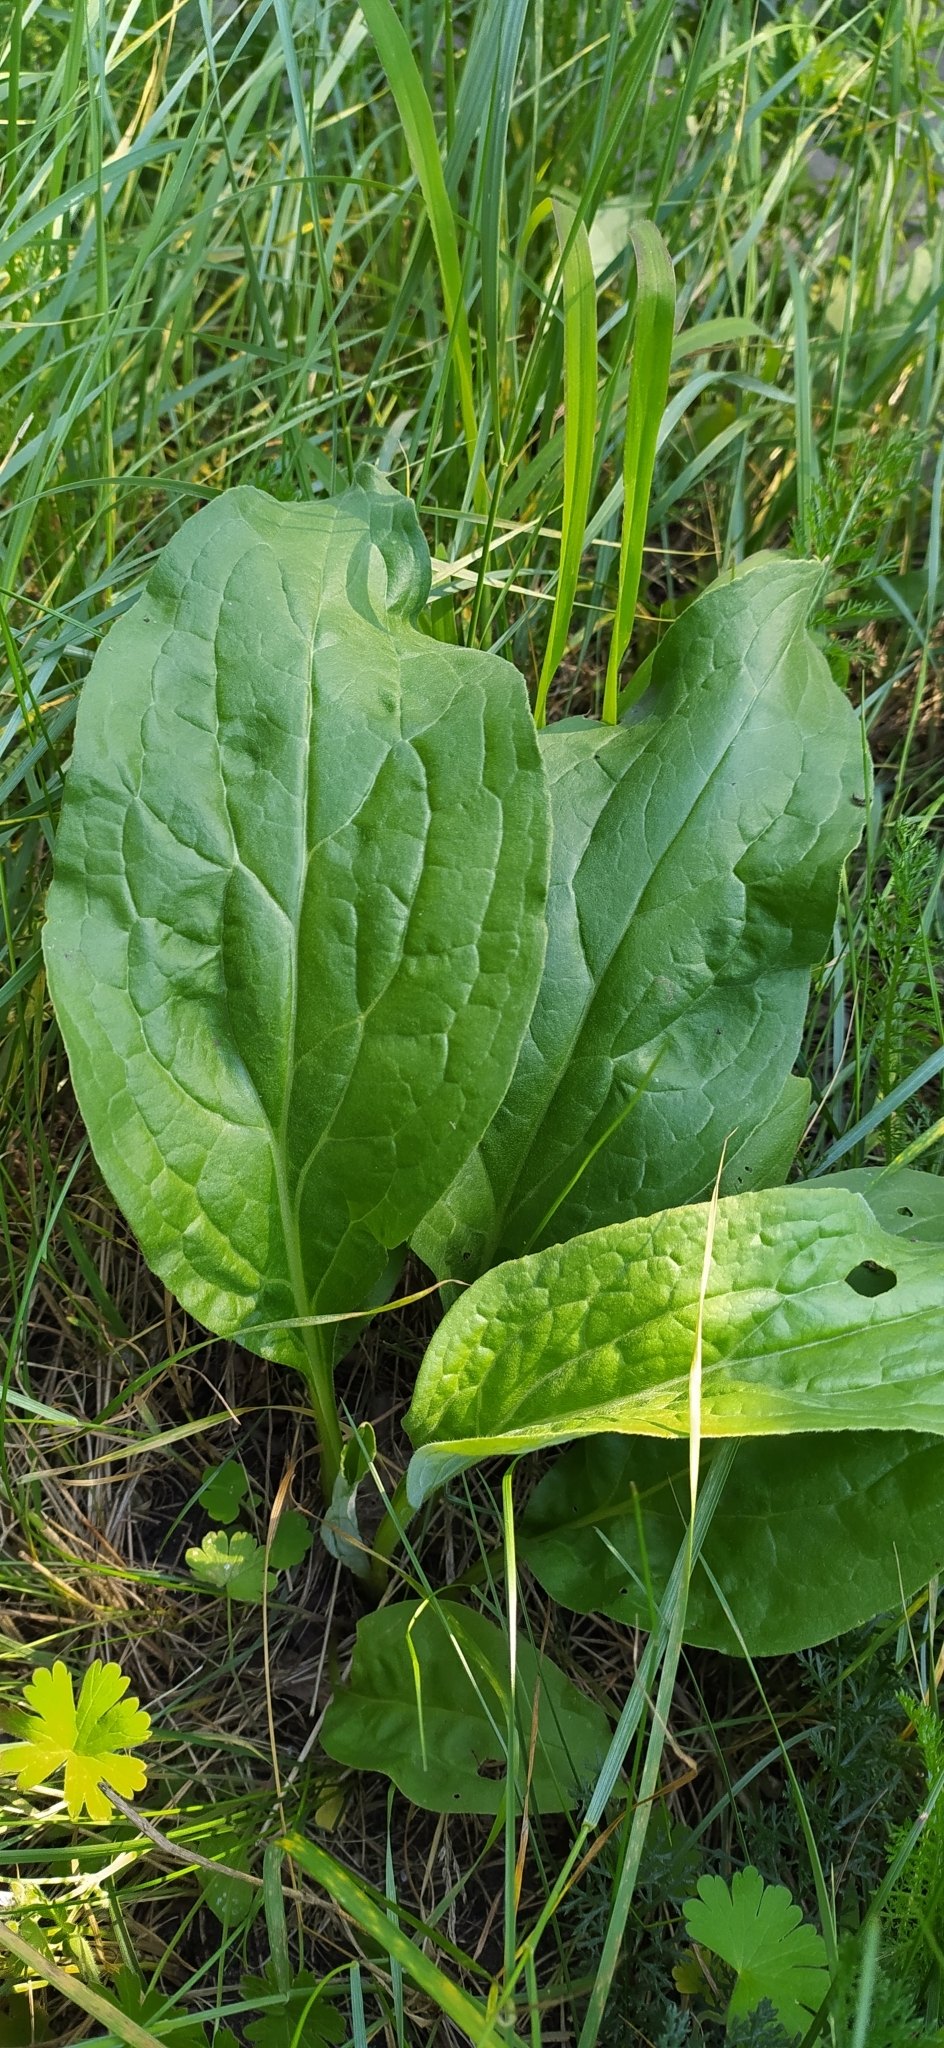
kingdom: Plantae
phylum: Tracheophyta
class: Magnoliopsida
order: Boraginales
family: Boraginaceae
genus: Cynoglossum
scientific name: Cynoglossum officinale
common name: Hound's-tongue
